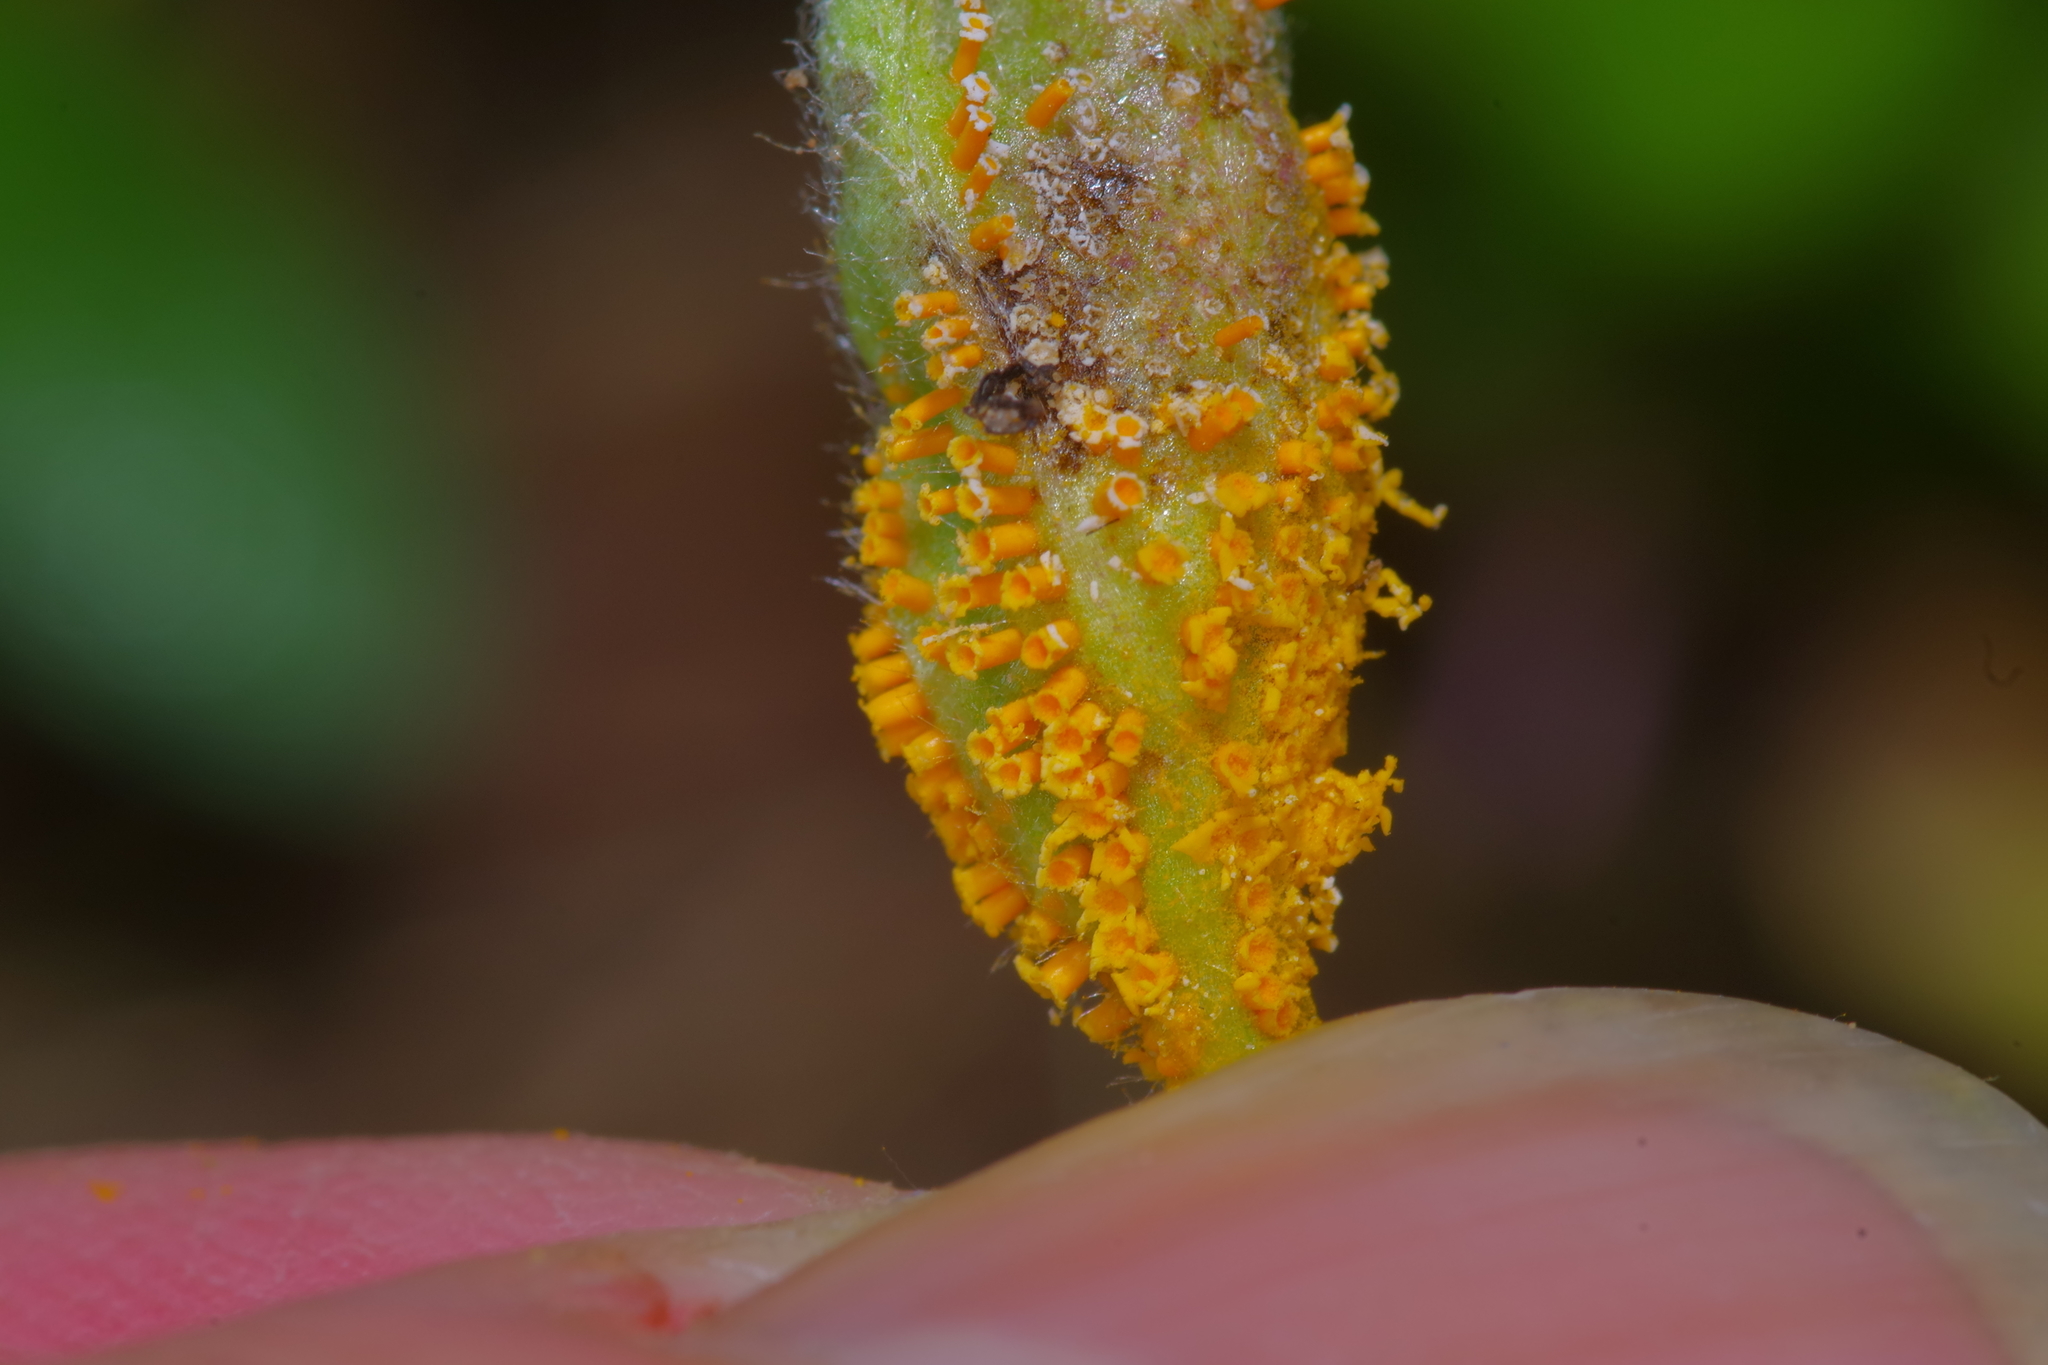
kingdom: Fungi
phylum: Basidiomycota
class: Pucciniomycetes
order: Pucciniales
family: Pucciniaceae
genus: Puccinia
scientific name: Puccinia recondita
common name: Brown rust of wheat
